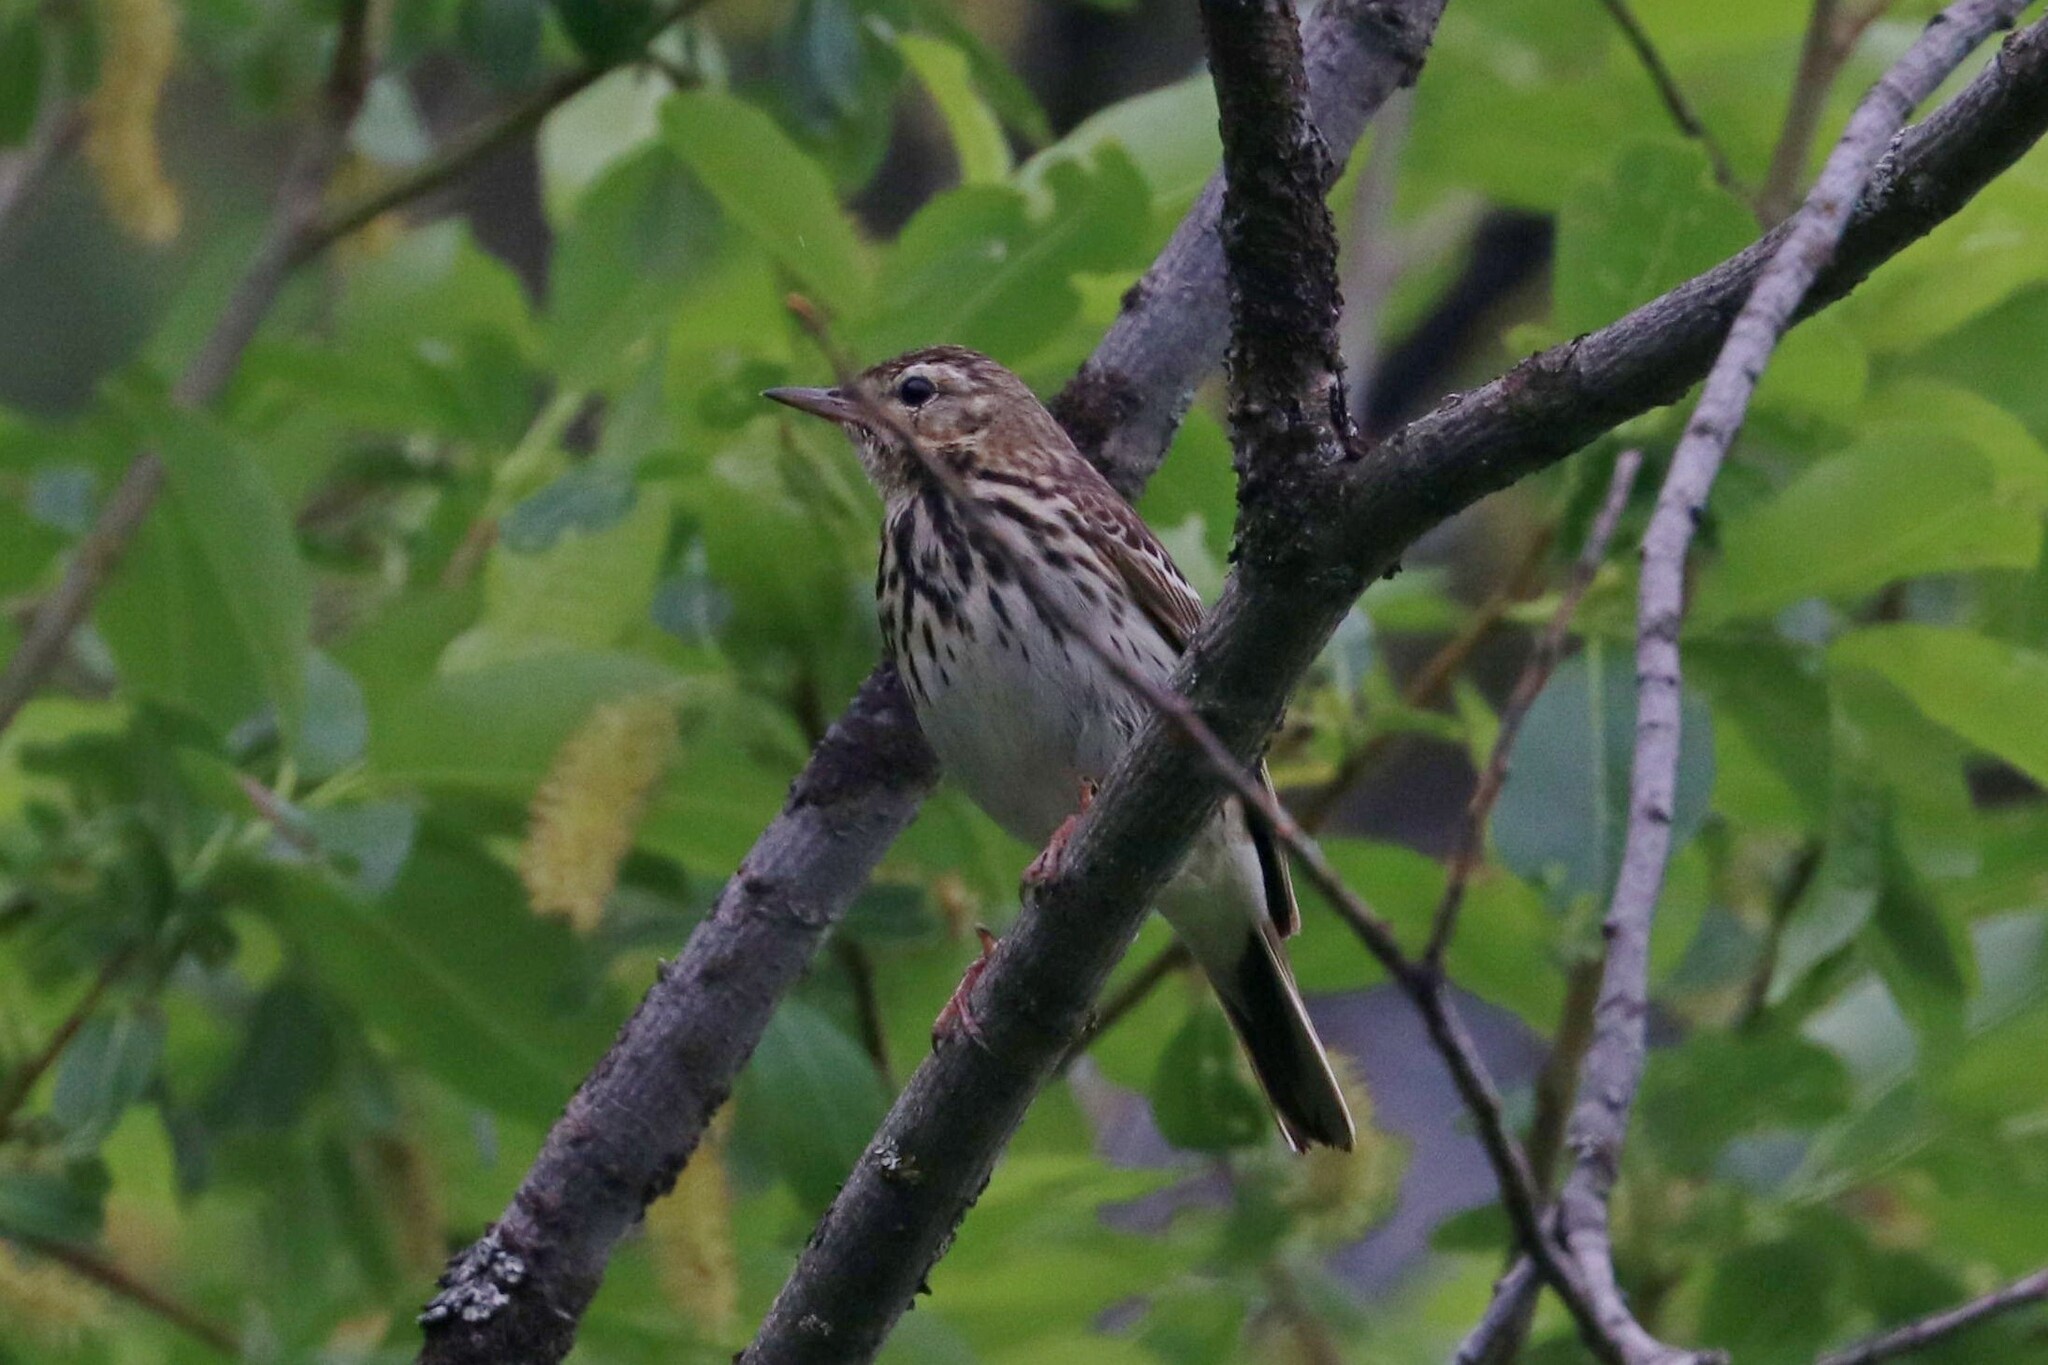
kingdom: Animalia
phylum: Chordata
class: Aves
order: Passeriformes
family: Motacillidae
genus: Anthus
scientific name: Anthus trivialis
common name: Tree pipit
